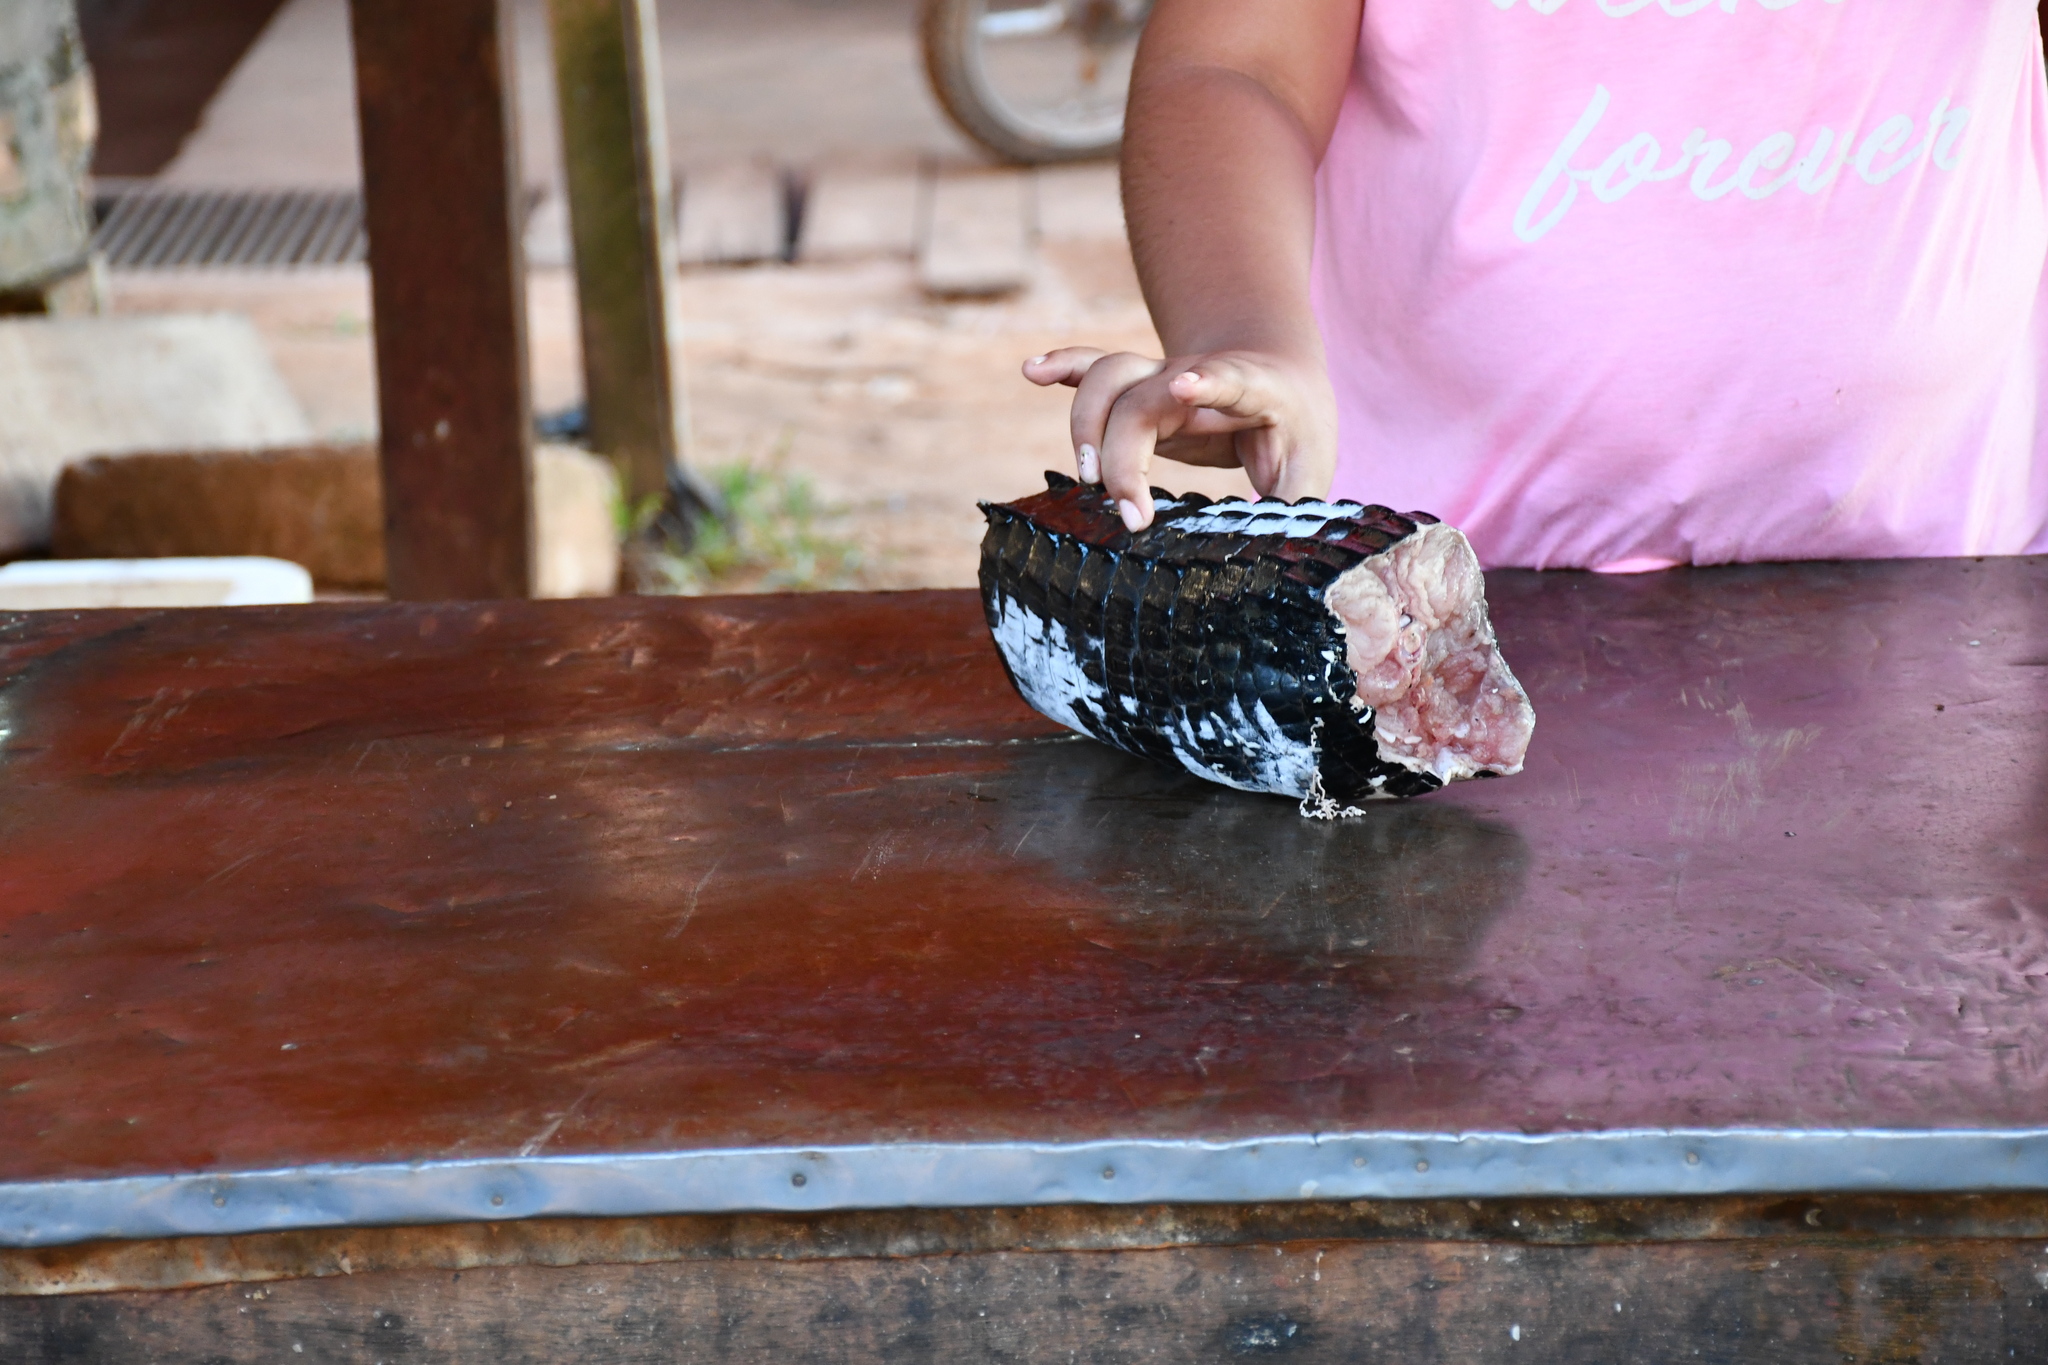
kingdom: Animalia
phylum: Chordata
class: Crocodylia
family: Alligatoridae
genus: Melanosuchus
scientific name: Melanosuchus niger
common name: Black caiman
